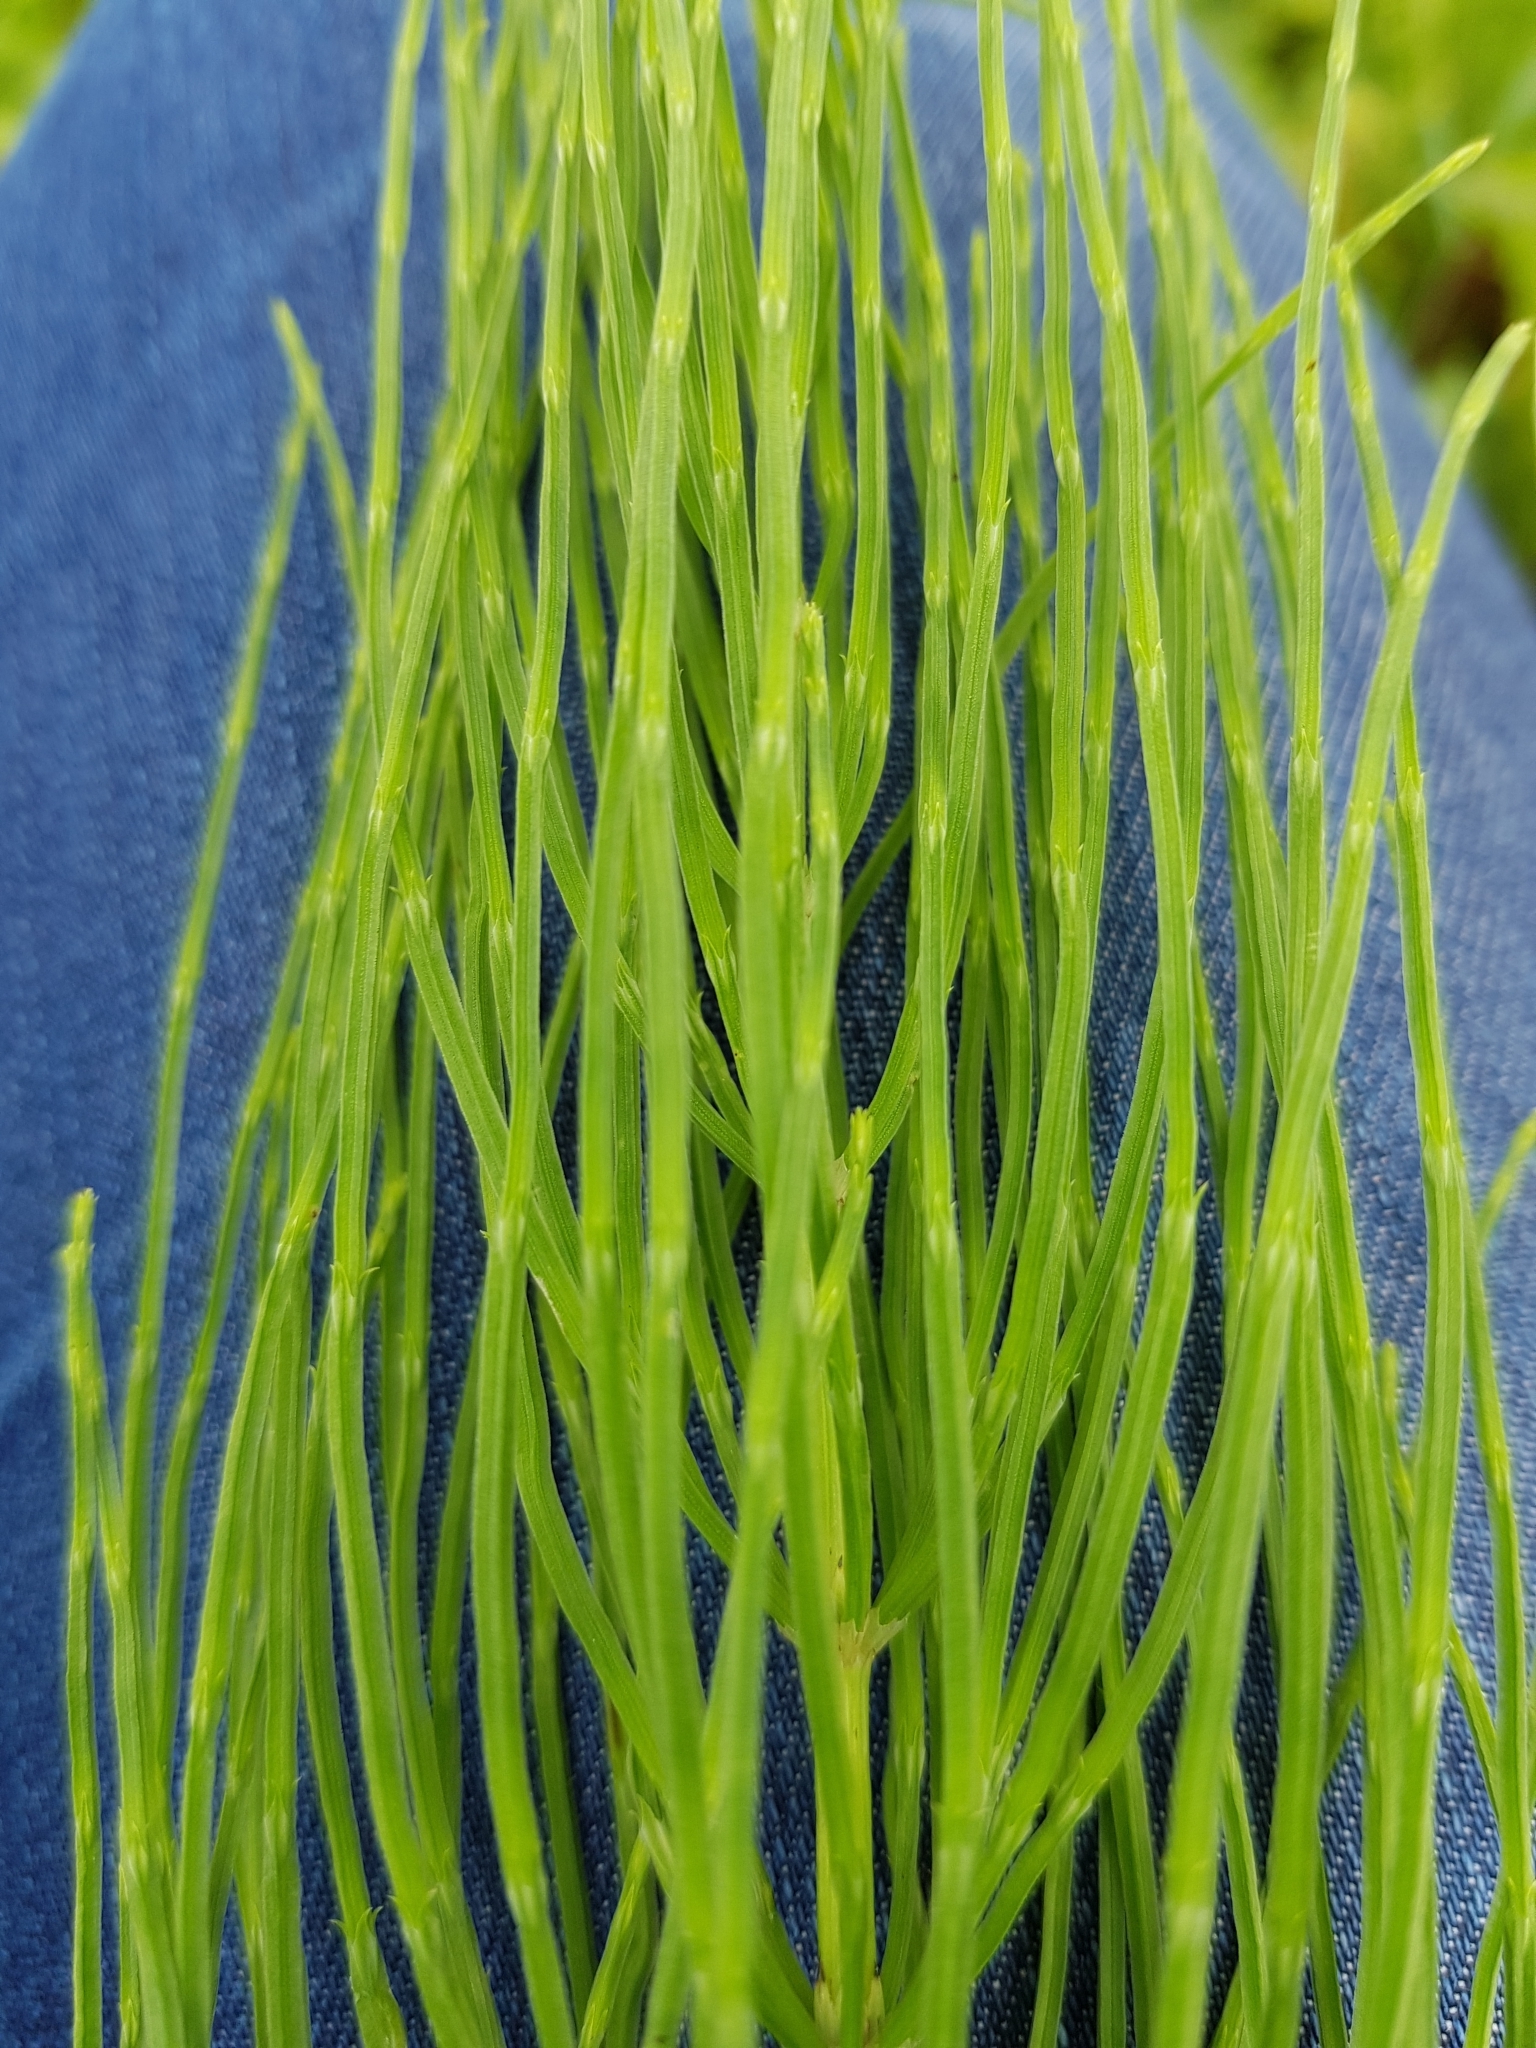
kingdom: Plantae
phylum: Tracheophyta
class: Polypodiopsida
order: Equisetales
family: Equisetaceae
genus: Equisetum
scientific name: Equisetum arvense
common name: Field horsetail
